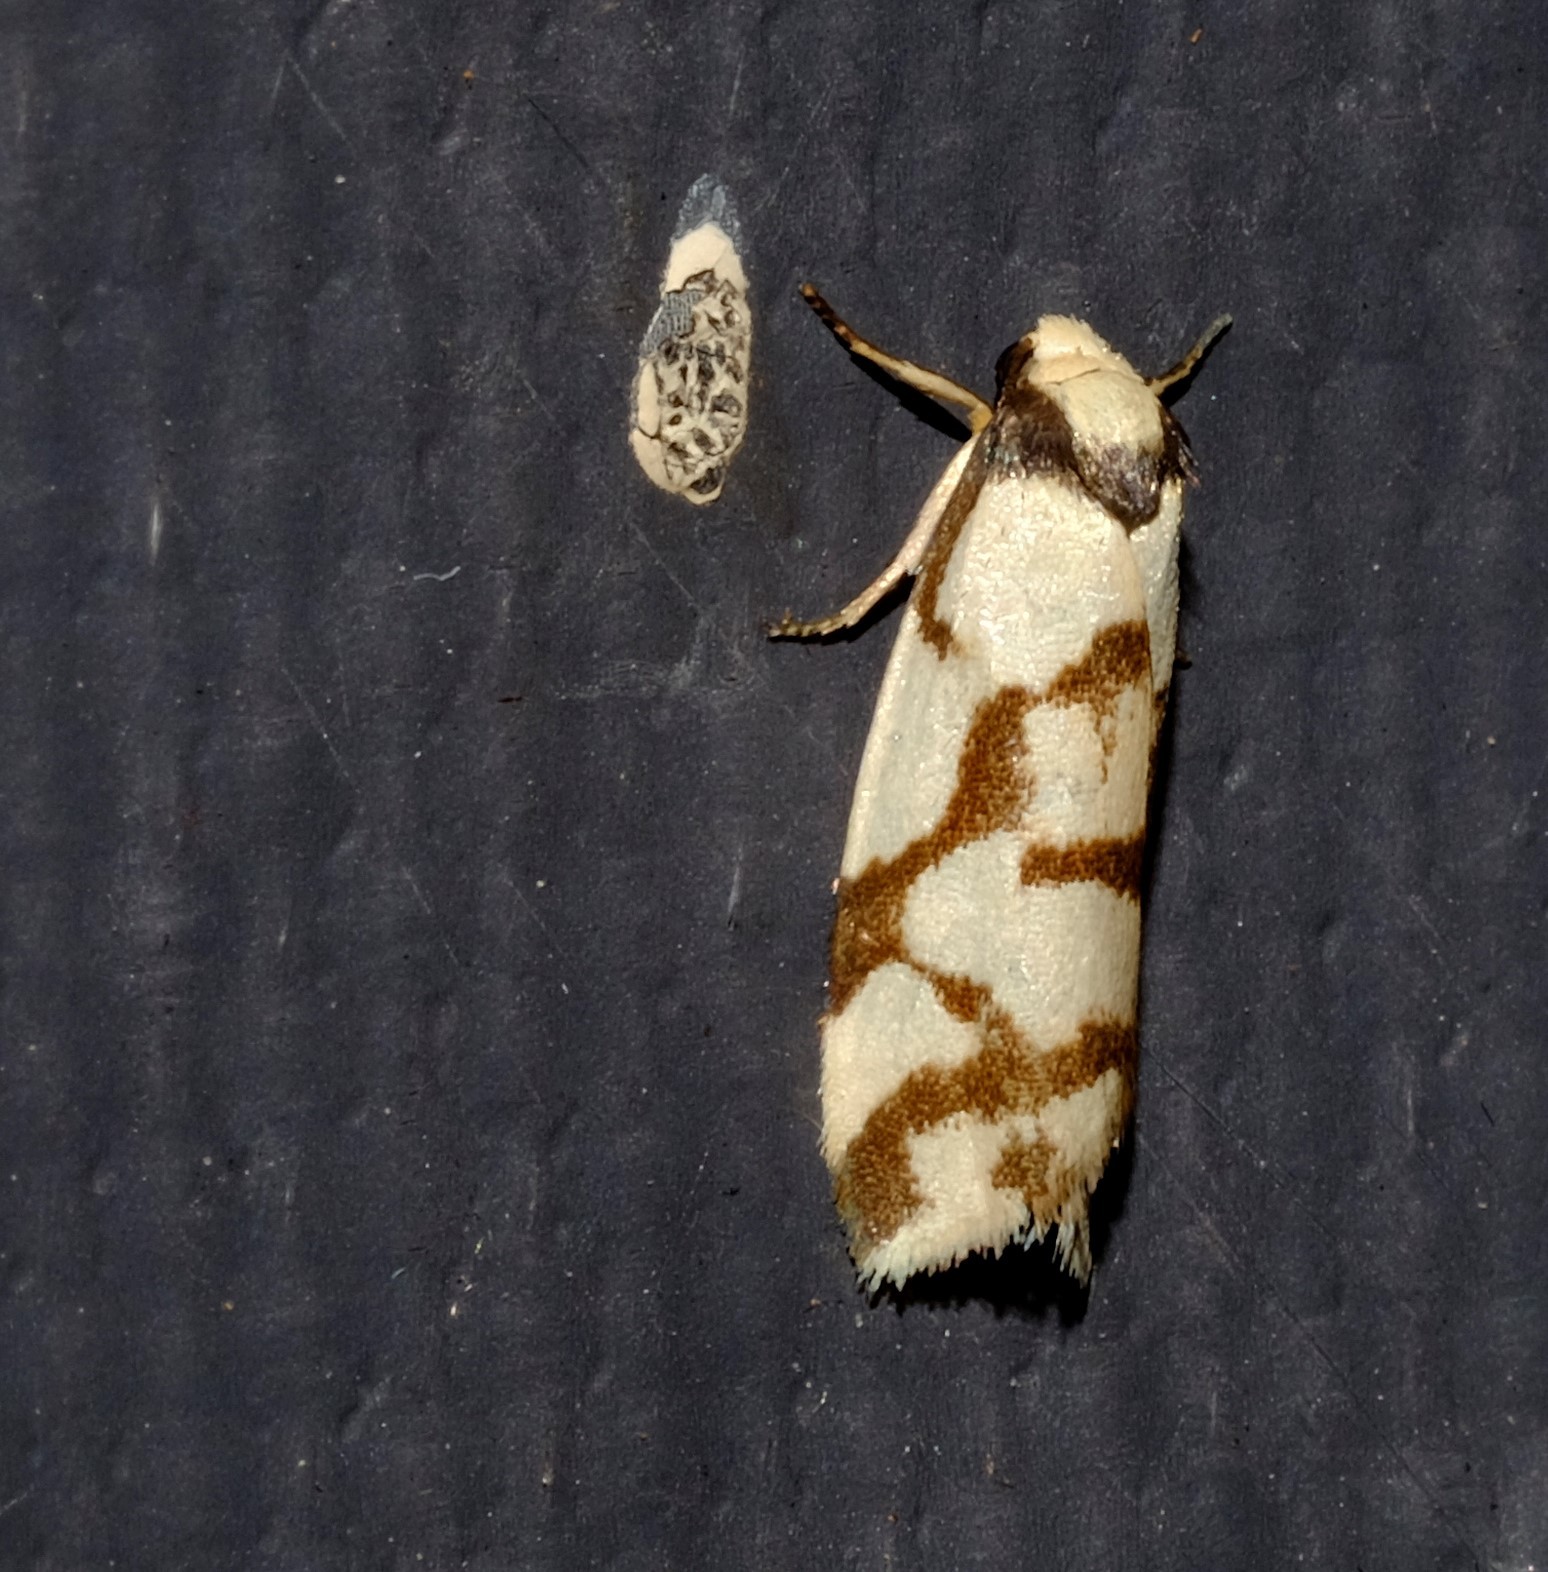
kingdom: Animalia
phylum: Arthropoda
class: Insecta
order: Lepidoptera
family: Erebidae
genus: Scaptesyle
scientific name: Scaptesyle dichotoma
